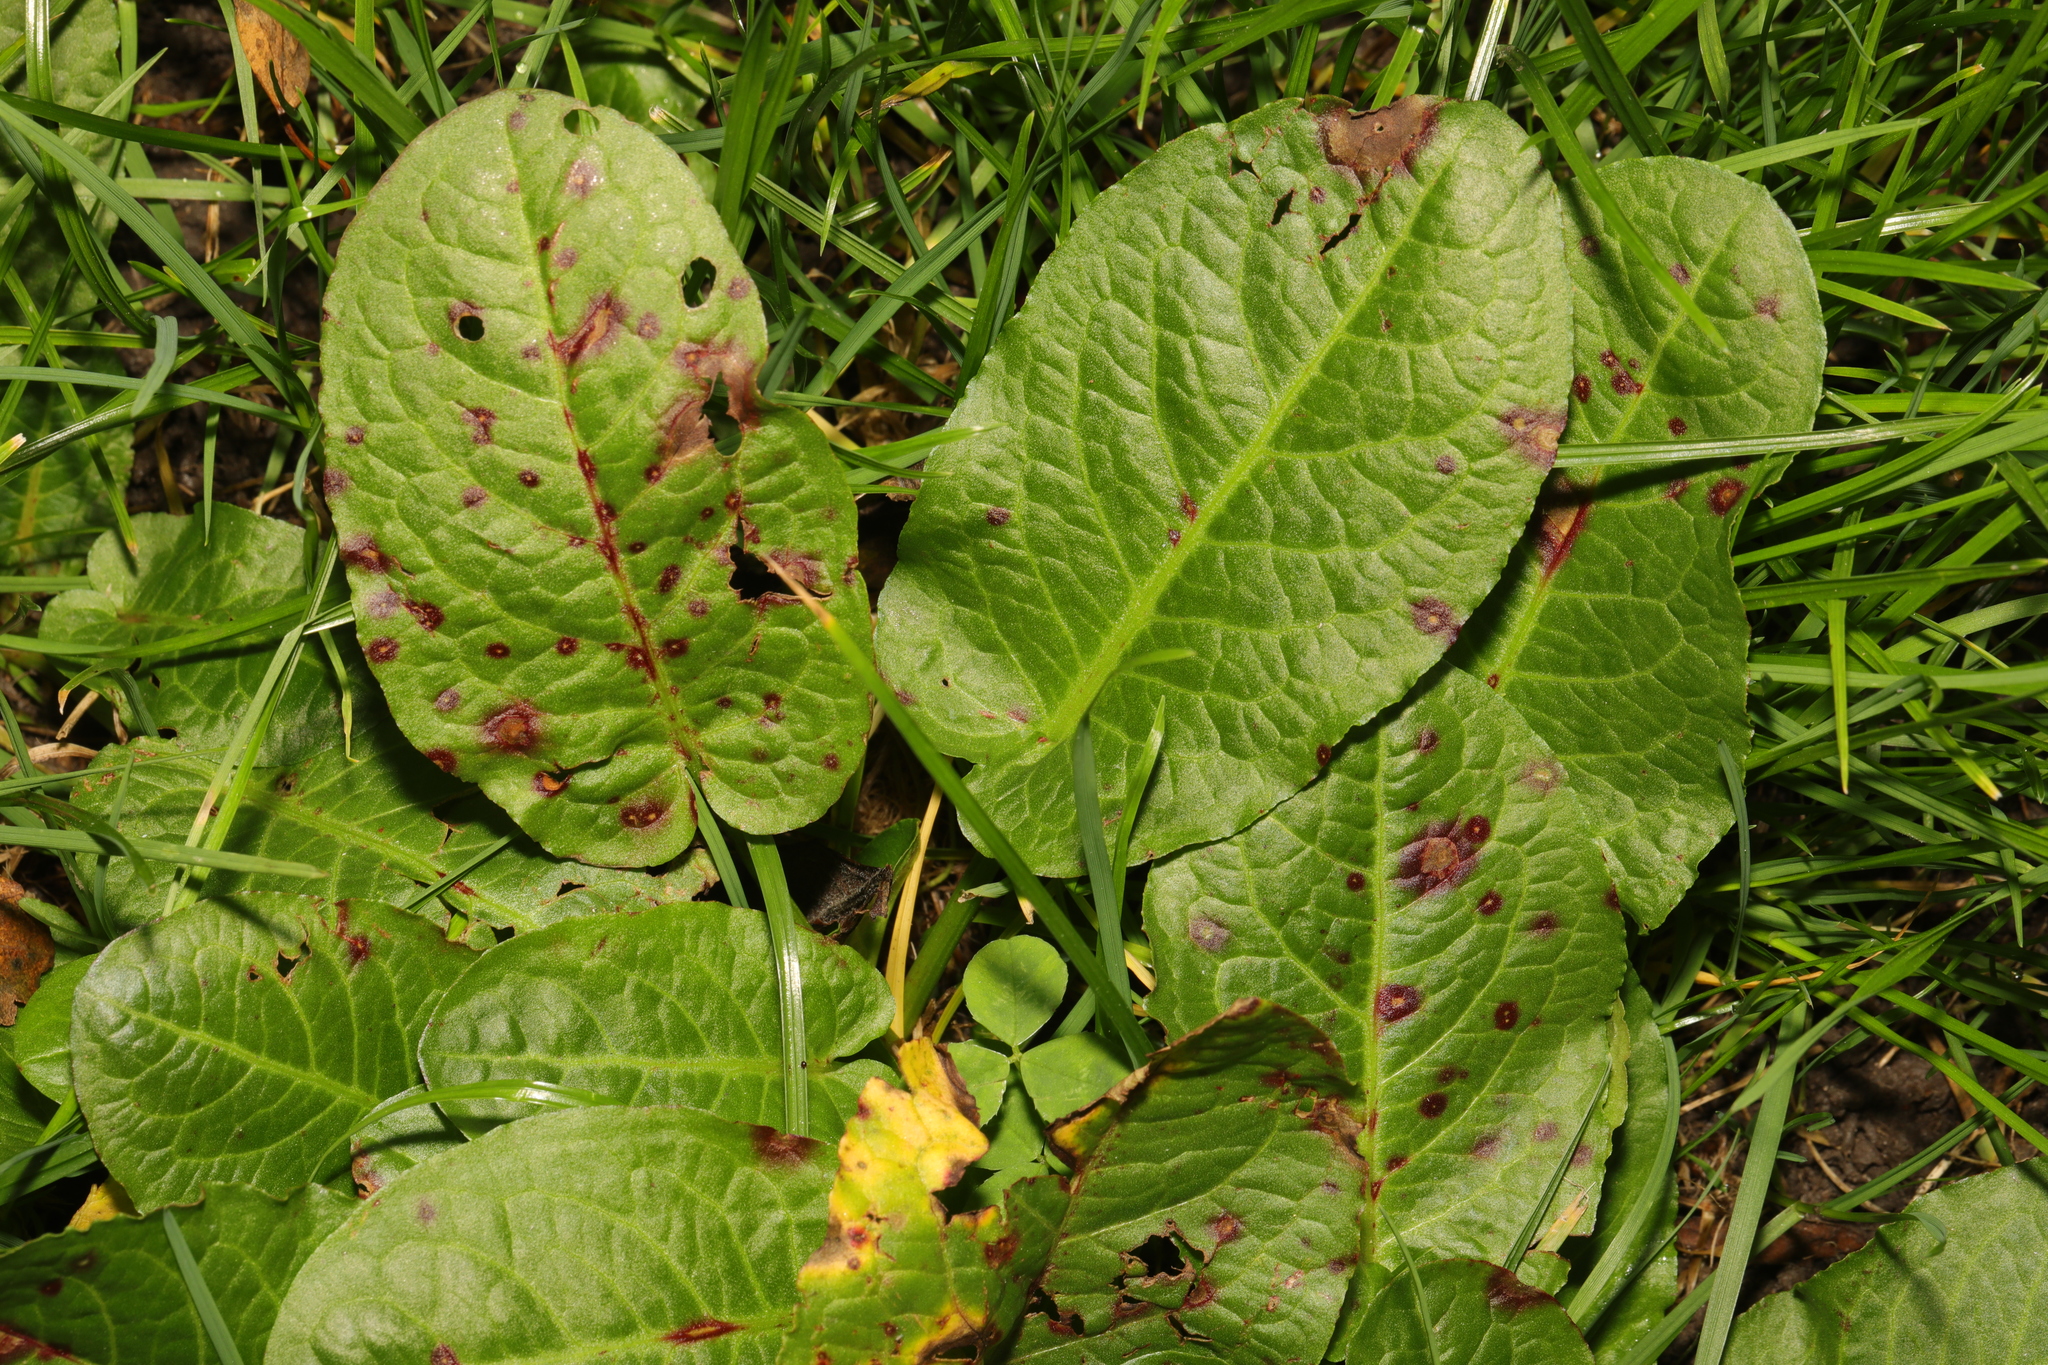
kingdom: Plantae
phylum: Tracheophyta
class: Magnoliopsida
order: Caryophyllales
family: Polygonaceae
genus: Rumex
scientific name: Rumex obtusifolius
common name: Bitter dock
